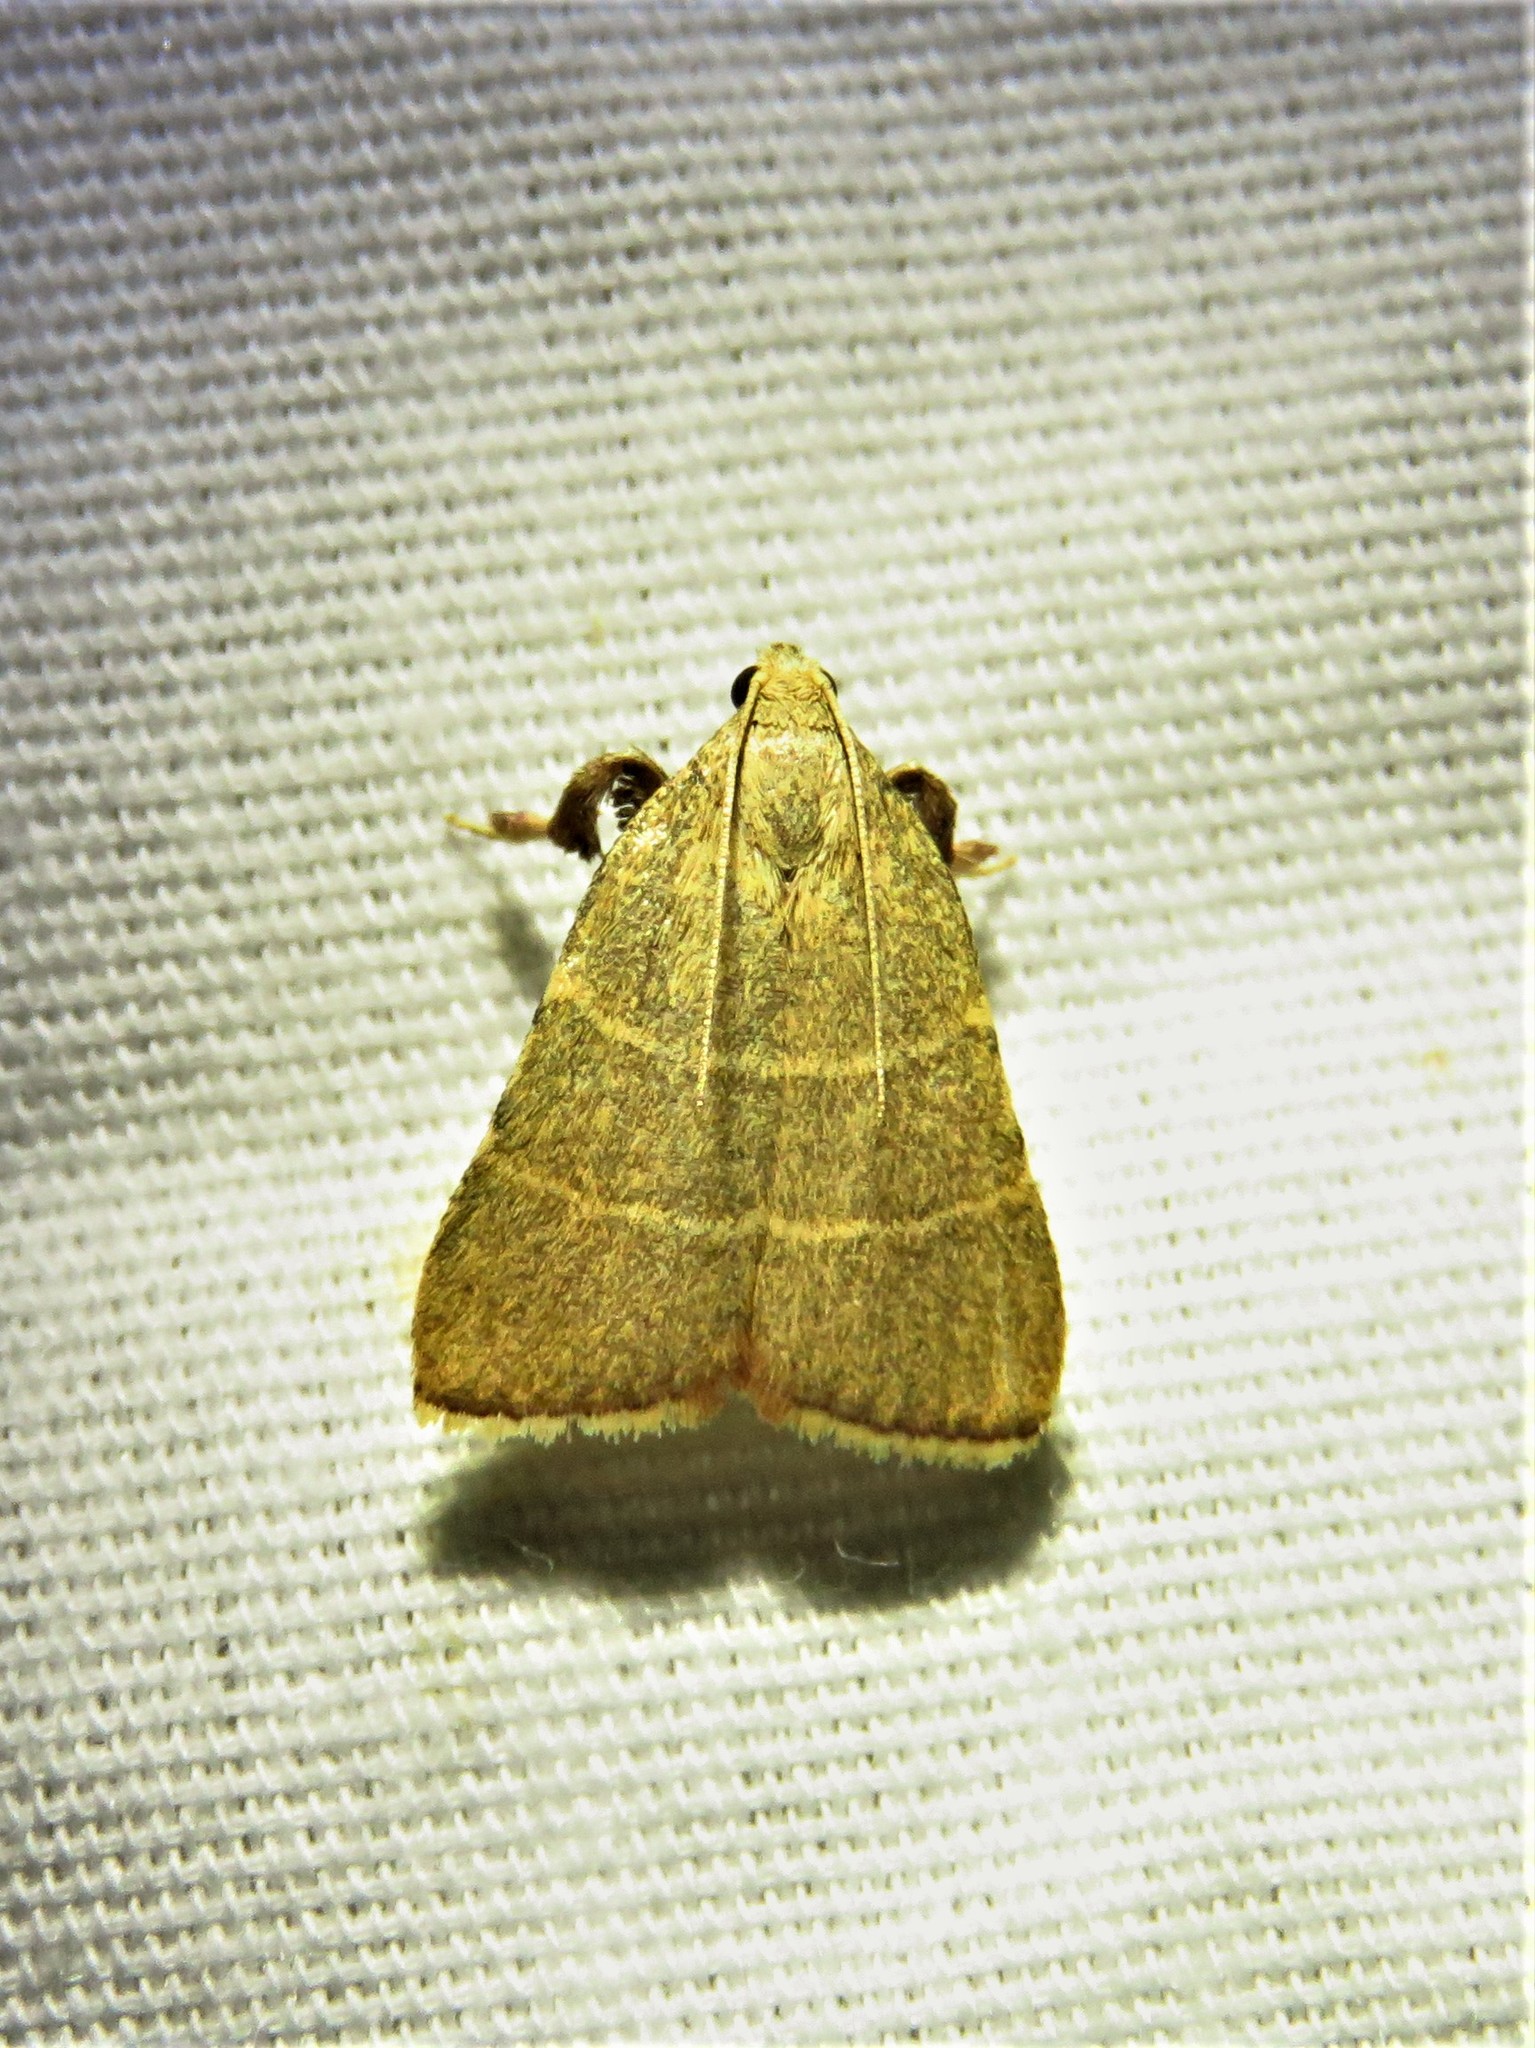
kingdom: Animalia
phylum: Arthropoda
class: Insecta
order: Lepidoptera
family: Pyralidae
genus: Parachma
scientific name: Parachma ochracealis
